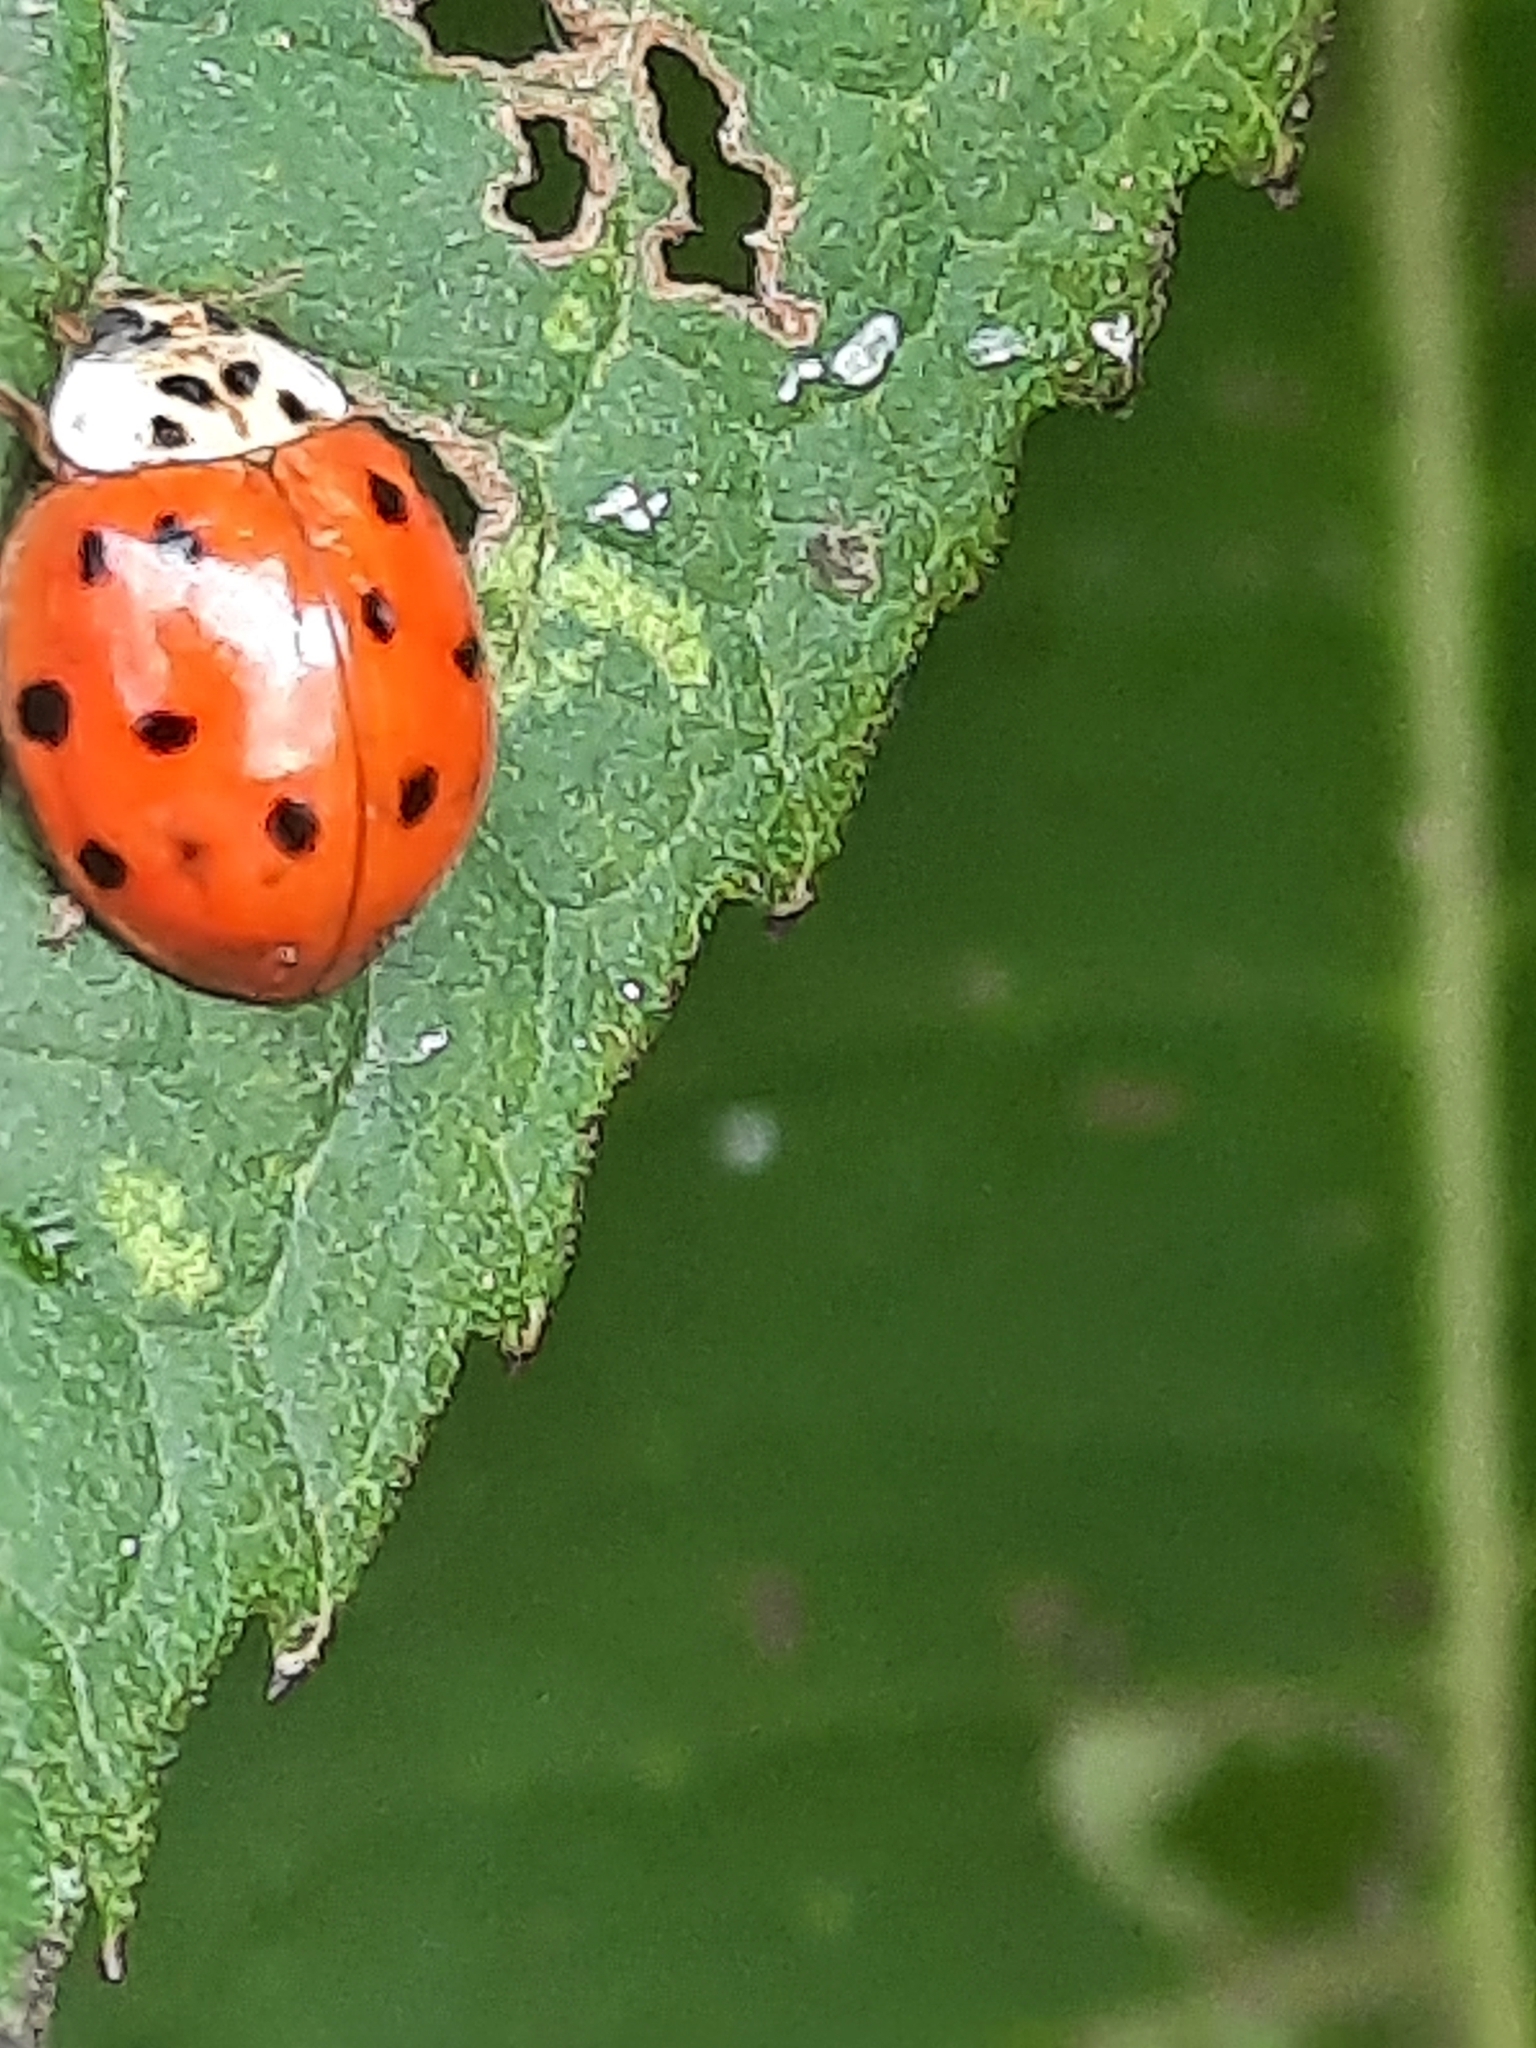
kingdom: Animalia
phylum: Arthropoda
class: Insecta
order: Coleoptera
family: Coccinellidae
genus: Harmonia
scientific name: Harmonia axyridis
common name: Harlequin ladybird
